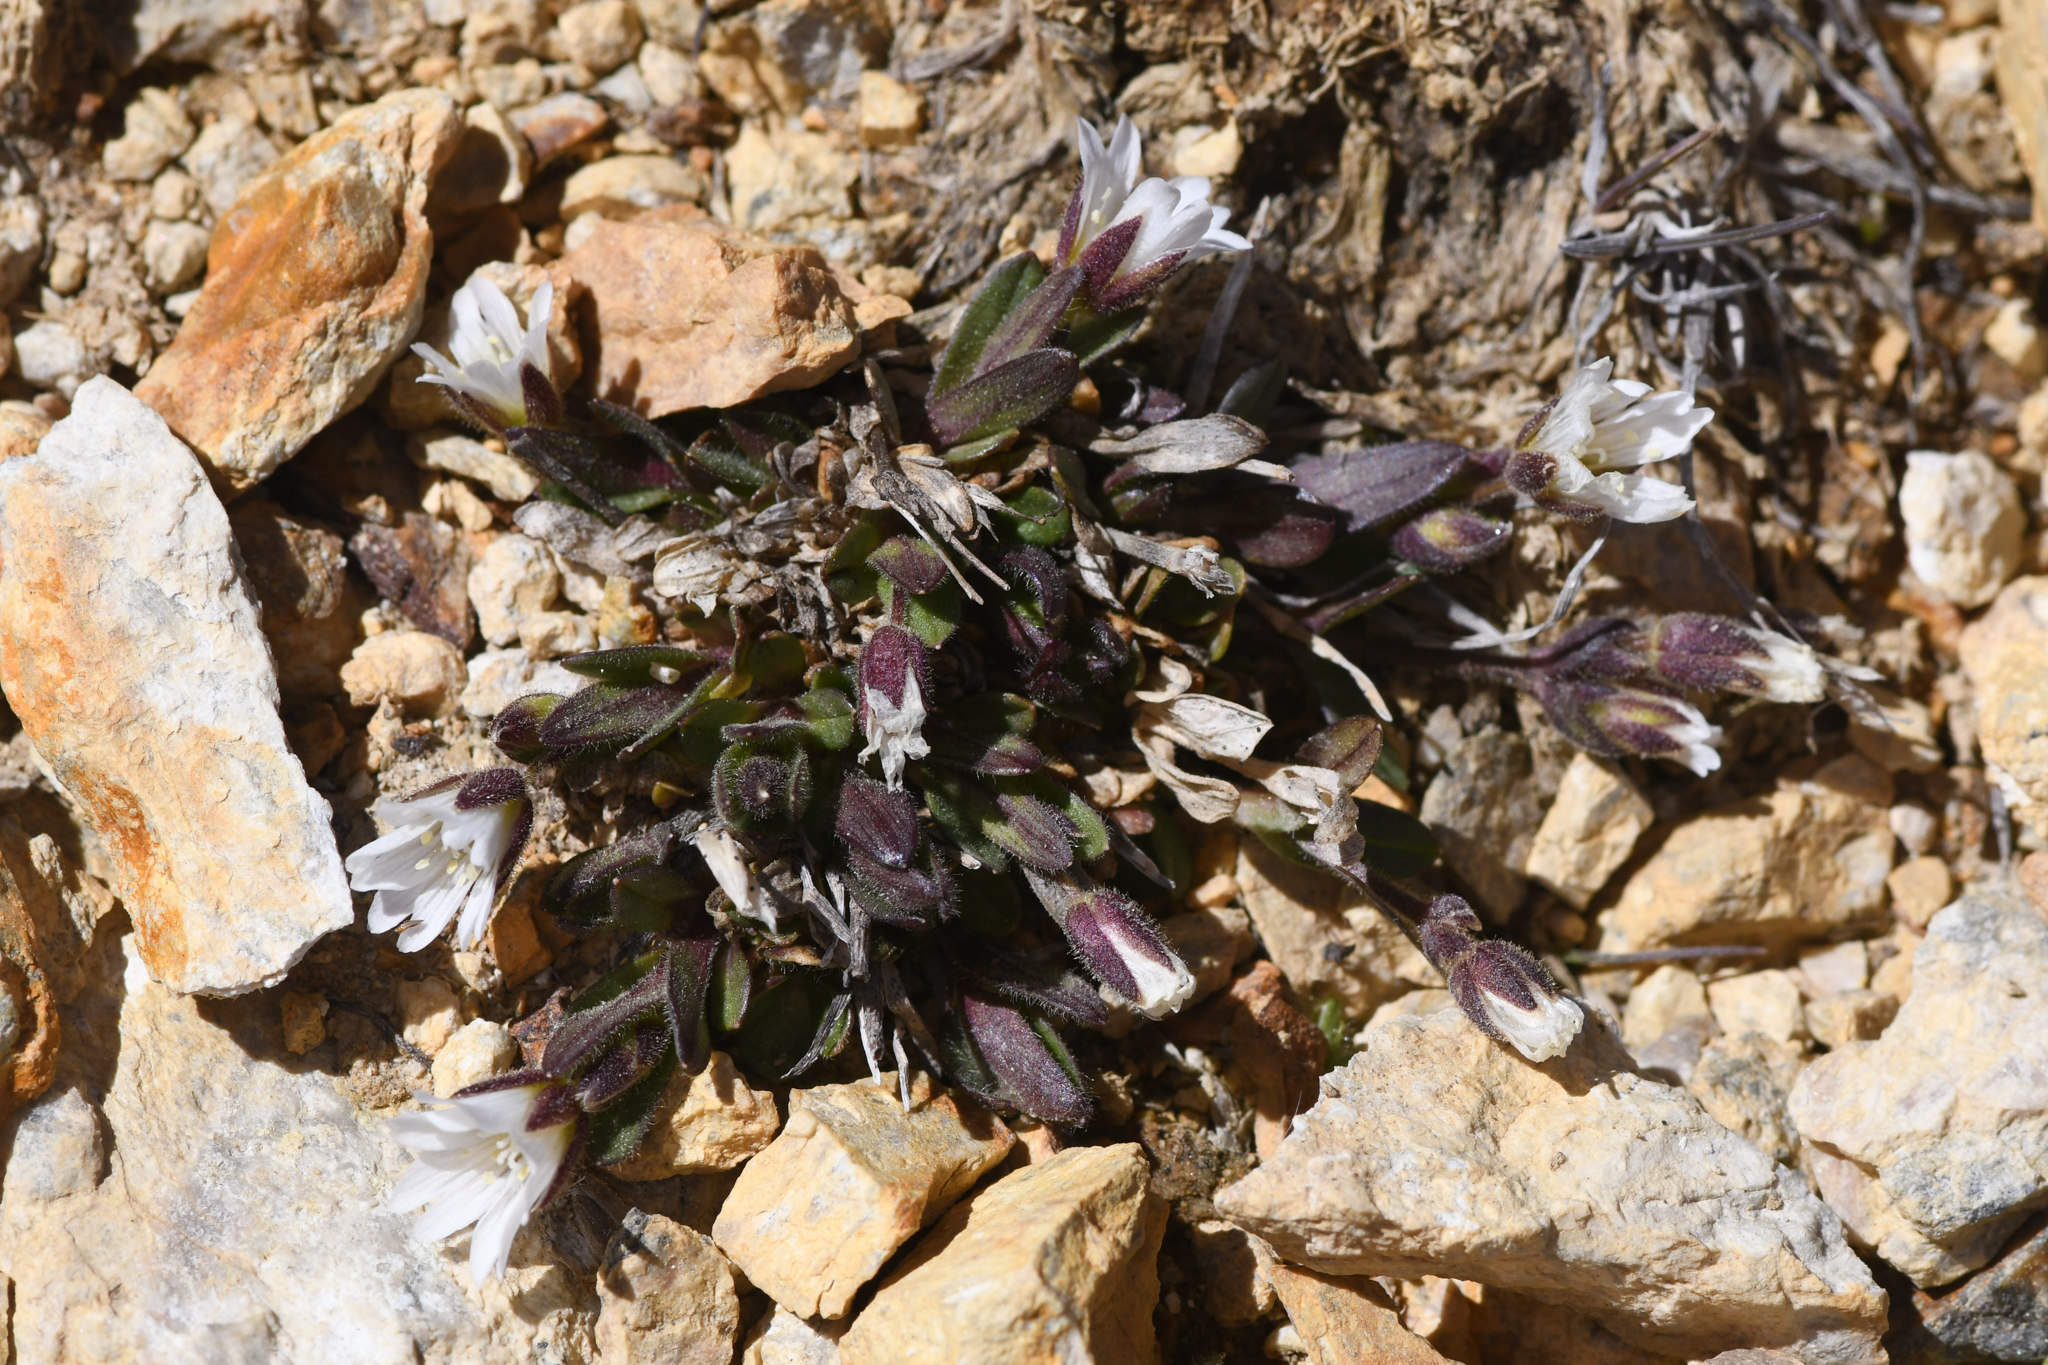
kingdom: Plantae
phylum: Tracheophyta
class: Magnoliopsida
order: Caryophyllales
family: Caryophyllaceae
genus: Cerastium
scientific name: Cerastium beeringianum
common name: Bering mouse-ear chickweed
